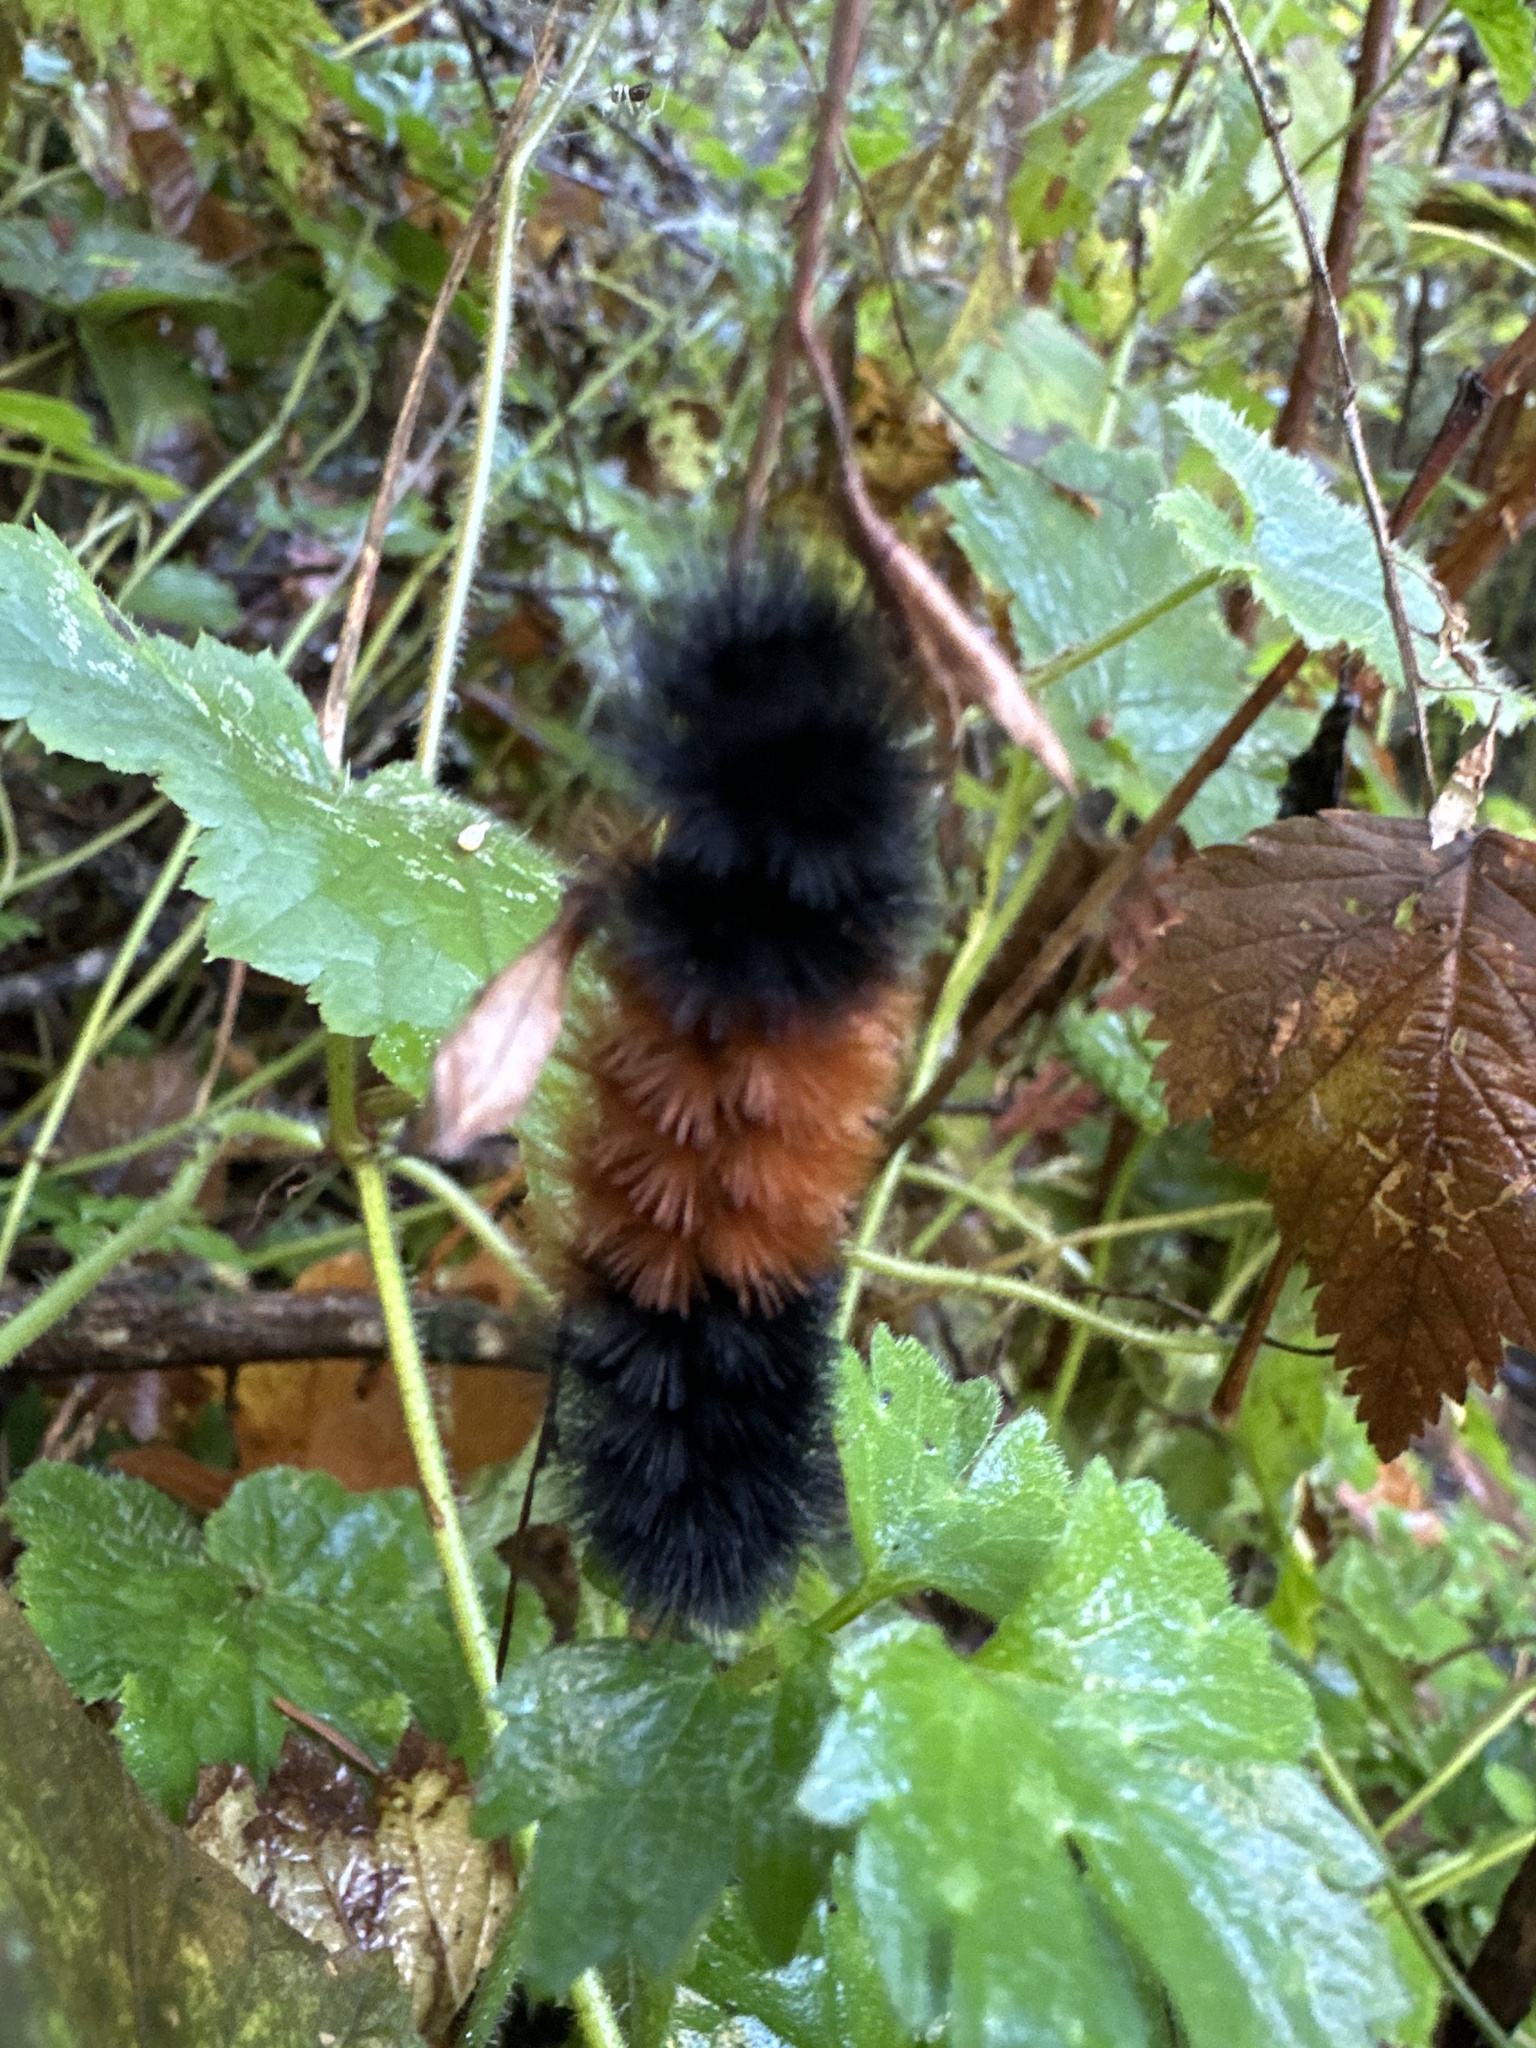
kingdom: Animalia
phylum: Arthropoda
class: Insecta
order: Lepidoptera
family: Erebidae
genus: Pyrrharctia
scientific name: Pyrrharctia isabella
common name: Isabella tiger moth
